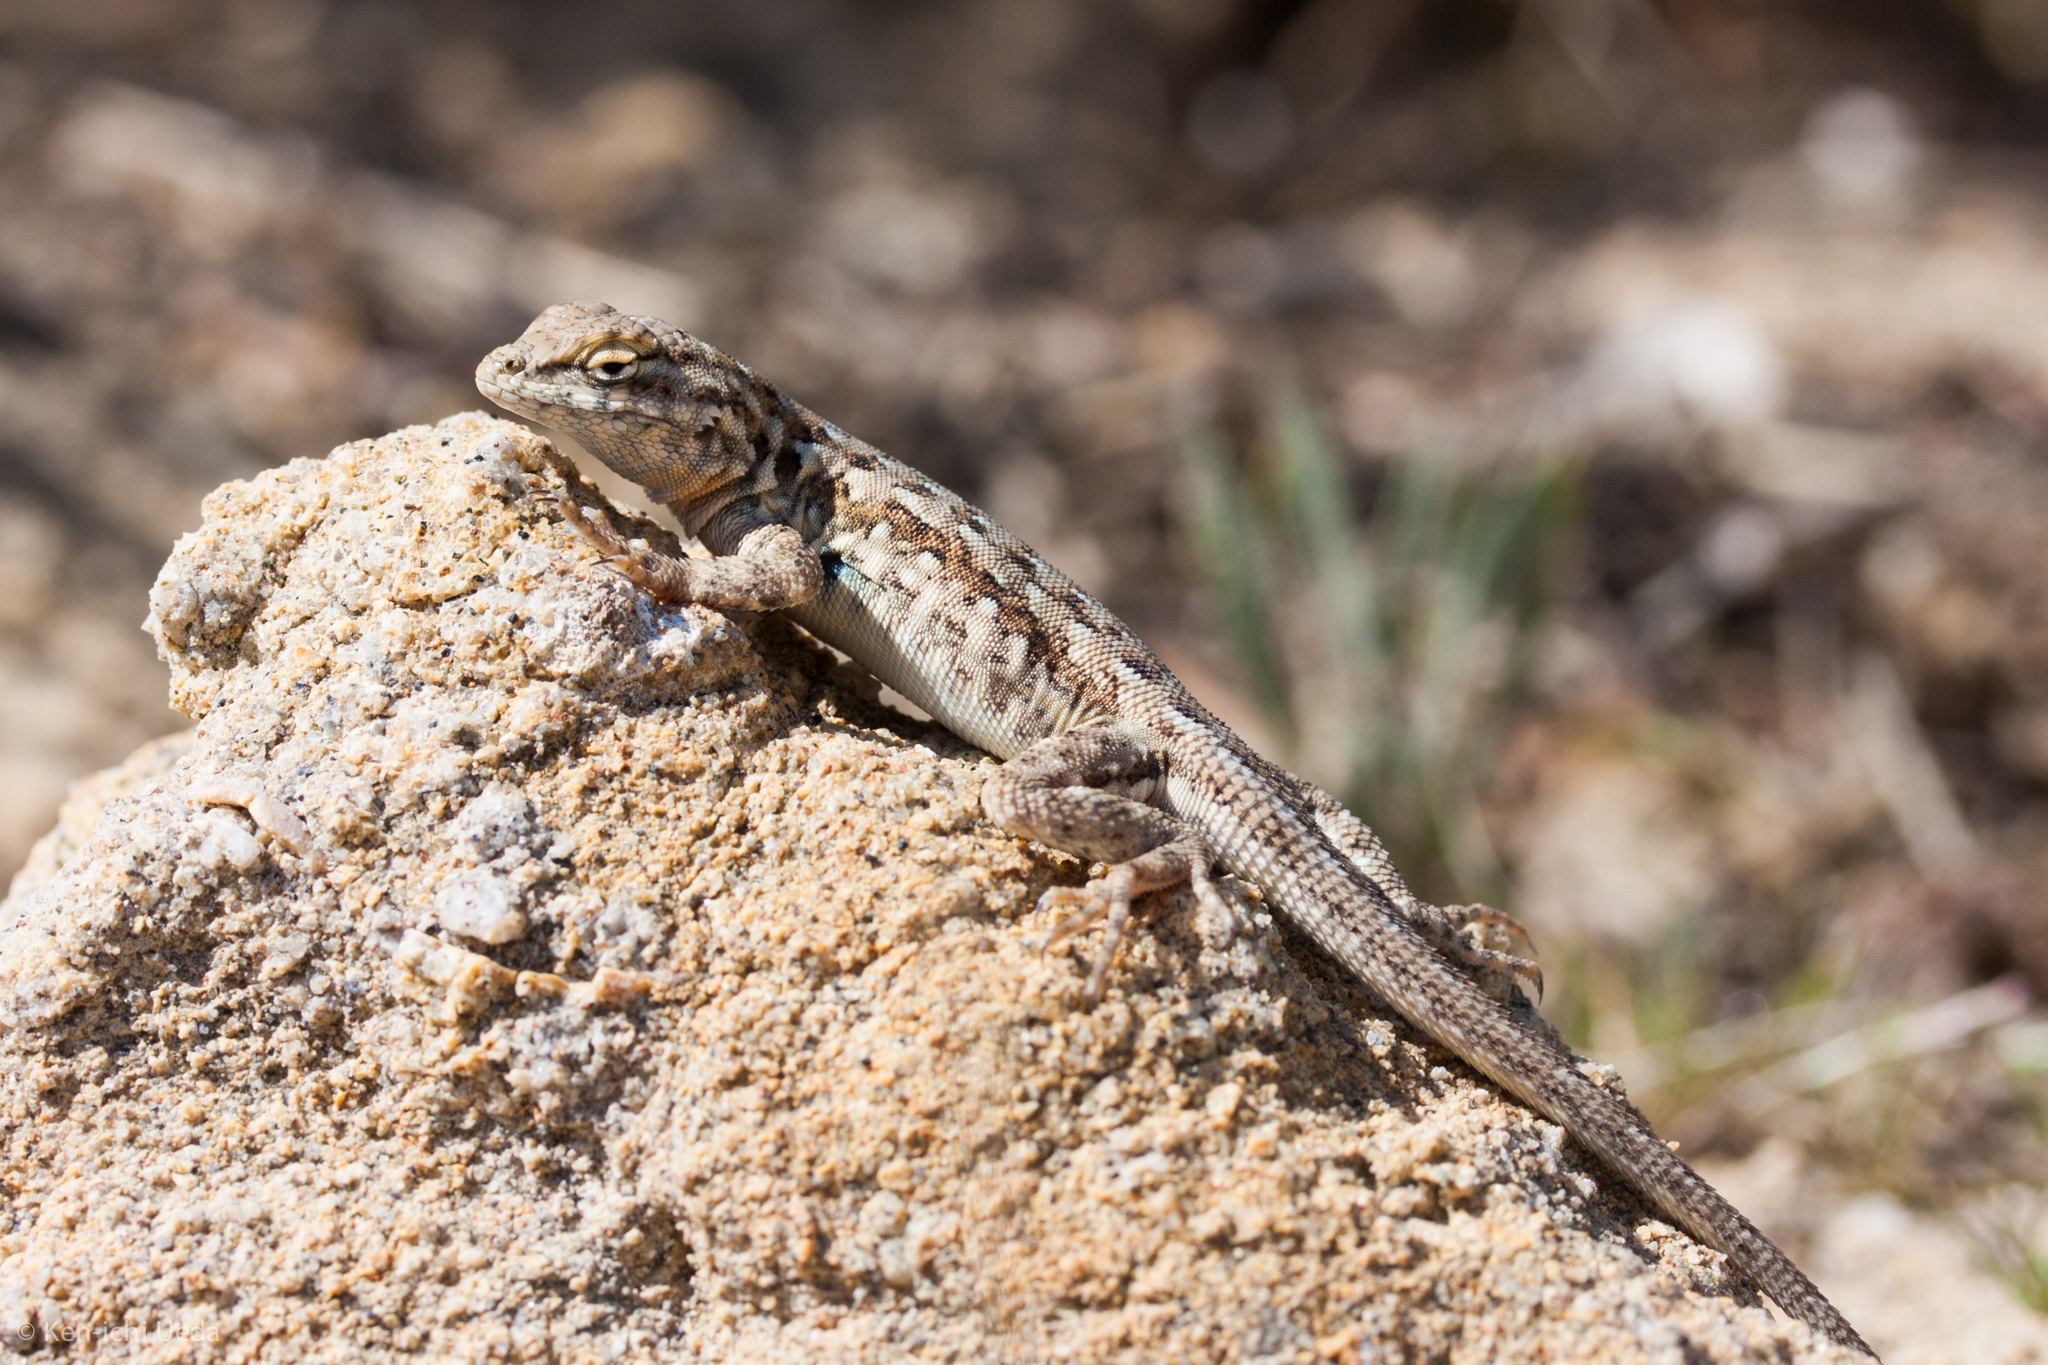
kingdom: Animalia
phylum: Chordata
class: Squamata
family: Phrynosomatidae
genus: Uta
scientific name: Uta stansburiana
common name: Side-blotched lizard
